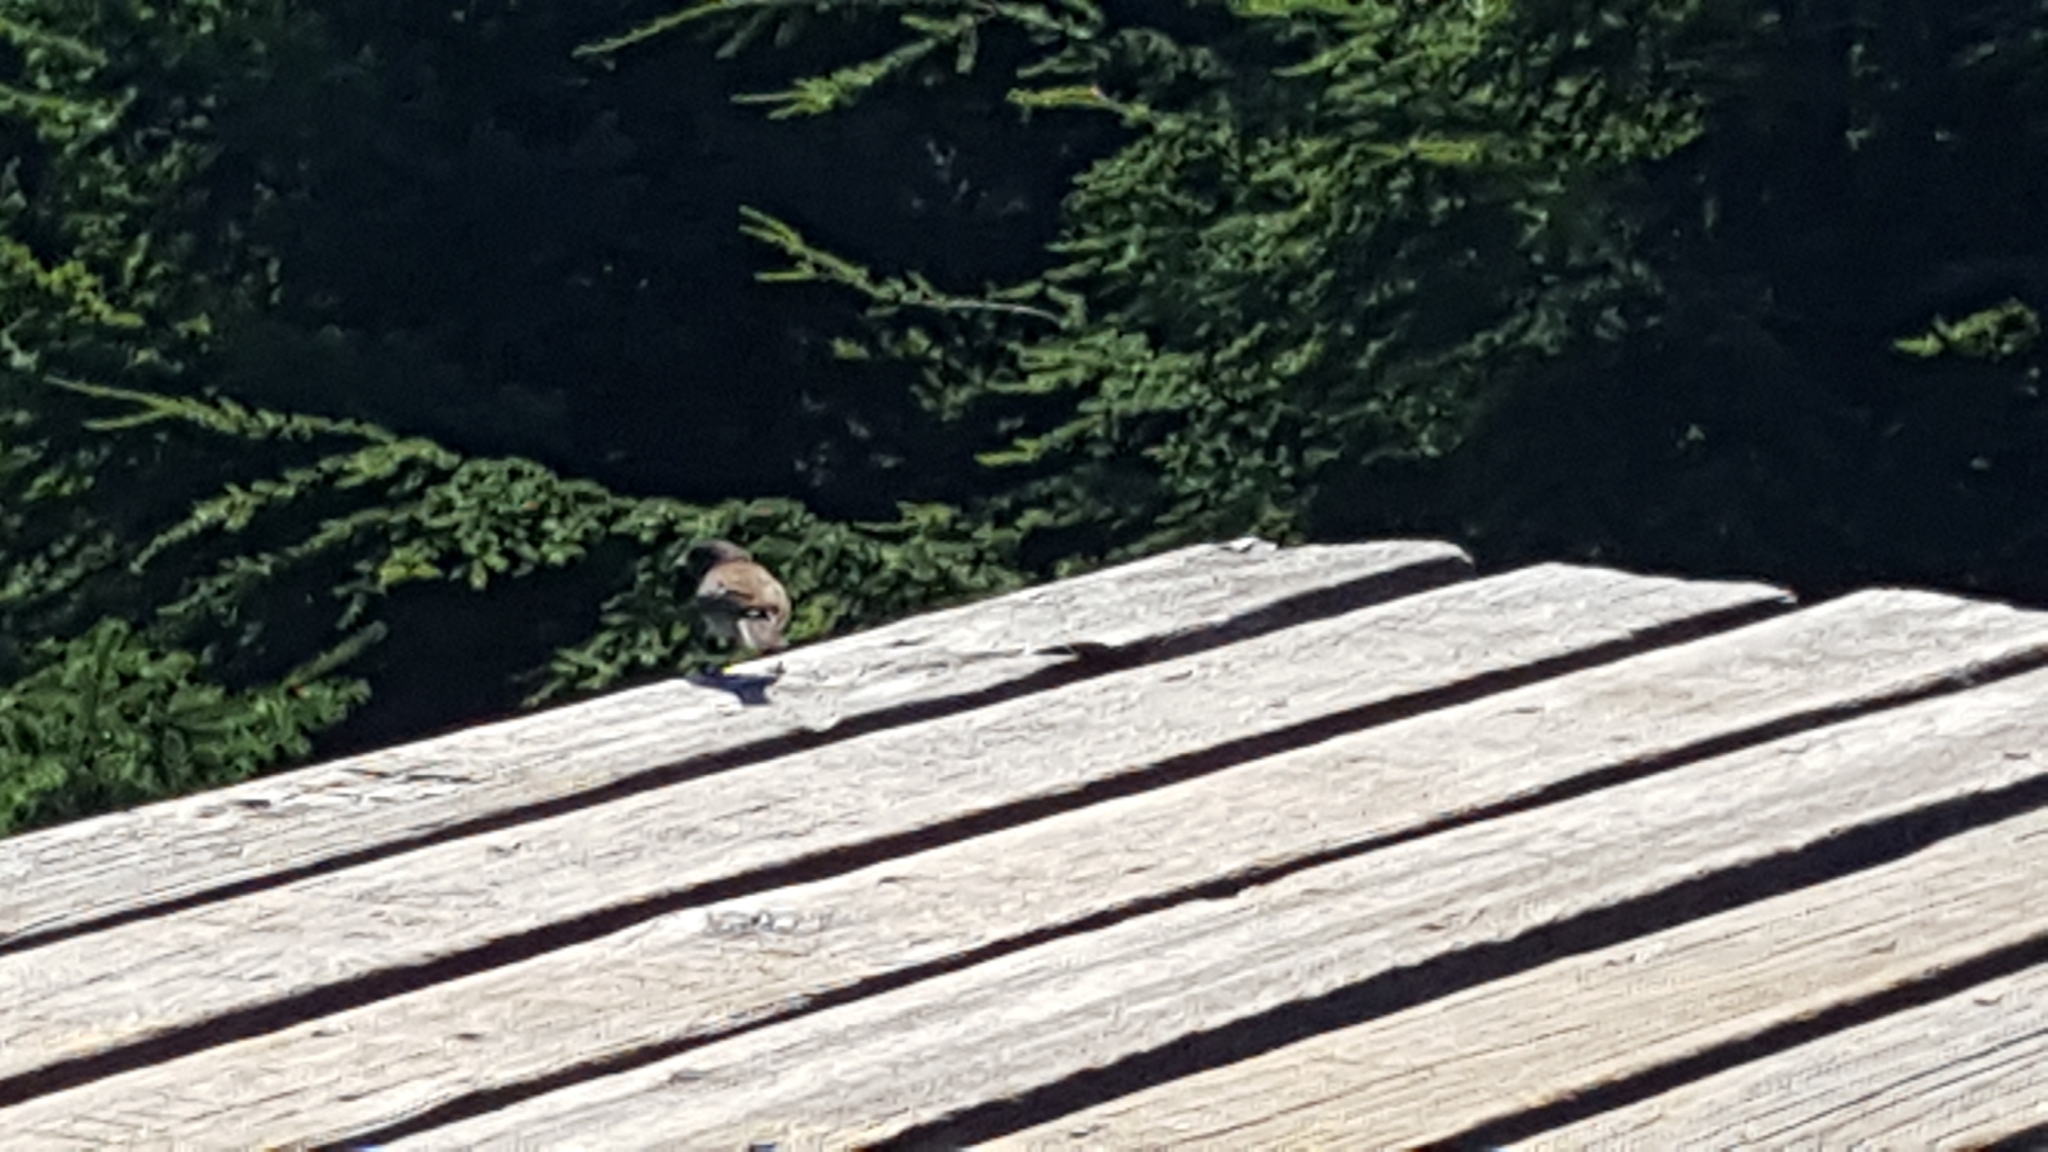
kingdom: Animalia
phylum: Chordata
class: Aves
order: Passeriformes
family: Passerellidae
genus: Junco
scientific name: Junco hyemalis
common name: Dark-eyed junco
